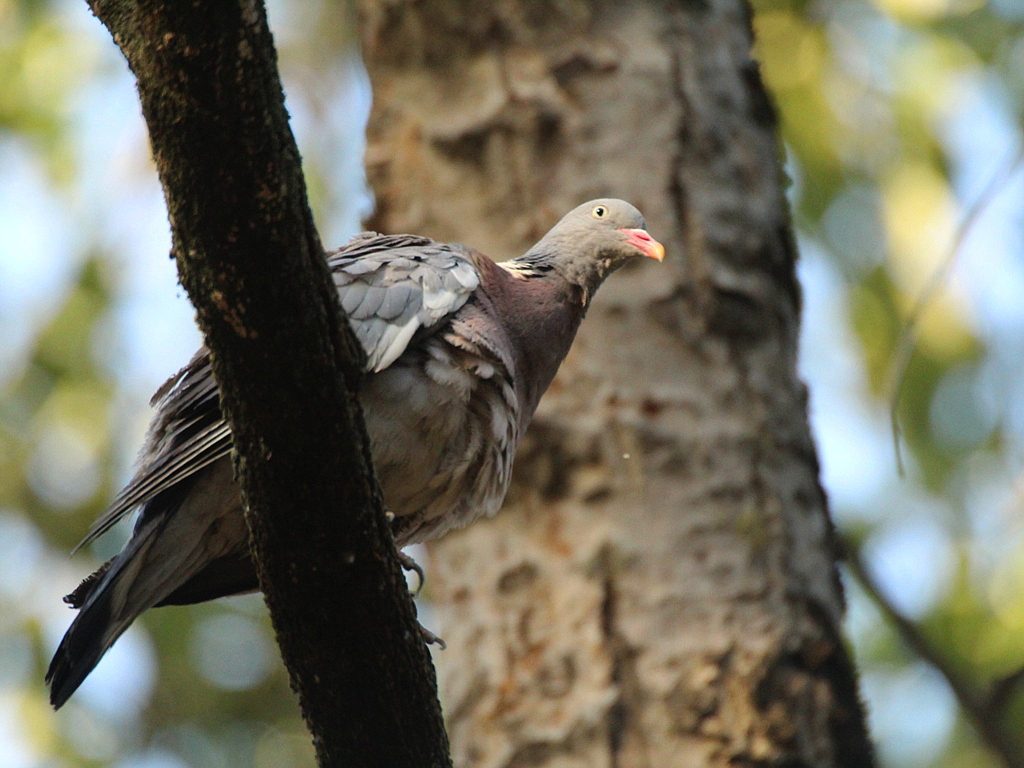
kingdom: Animalia
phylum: Chordata
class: Aves
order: Columbiformes
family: Columbidae
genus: Columba
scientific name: Columba palumbus
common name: Common wood pigeon
